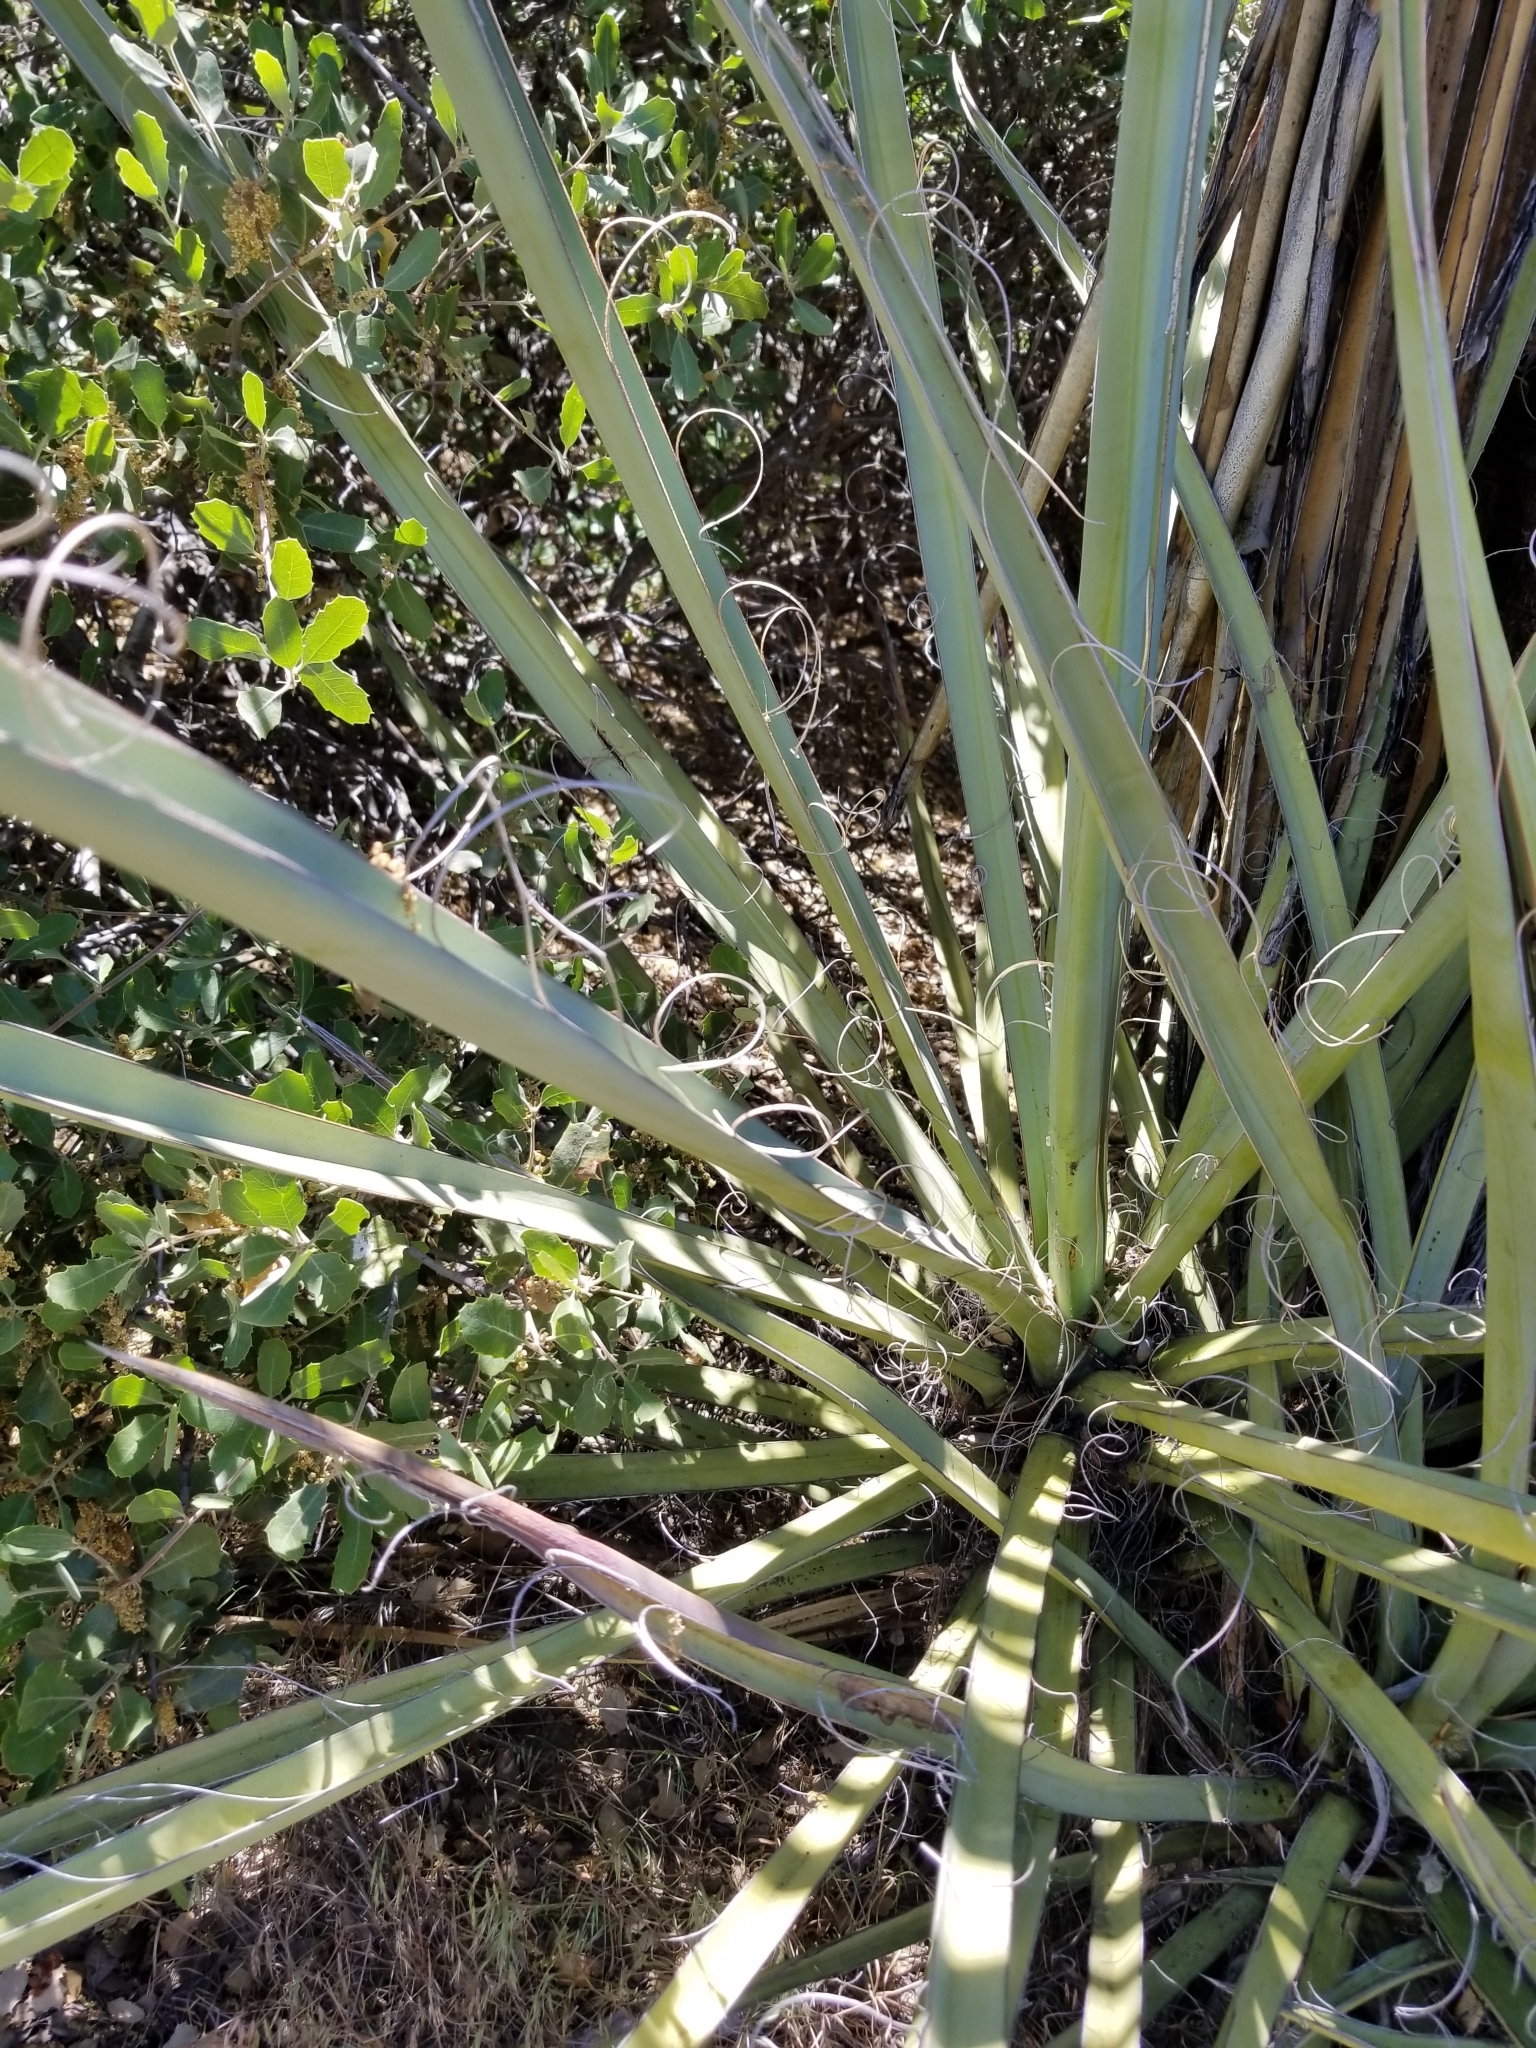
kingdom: Plantae
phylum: Tracheophyta
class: Liliopsida
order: Asparagales
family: Asparagaceae
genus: Yucca
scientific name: Yucca schidigera
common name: Mojave yucca
